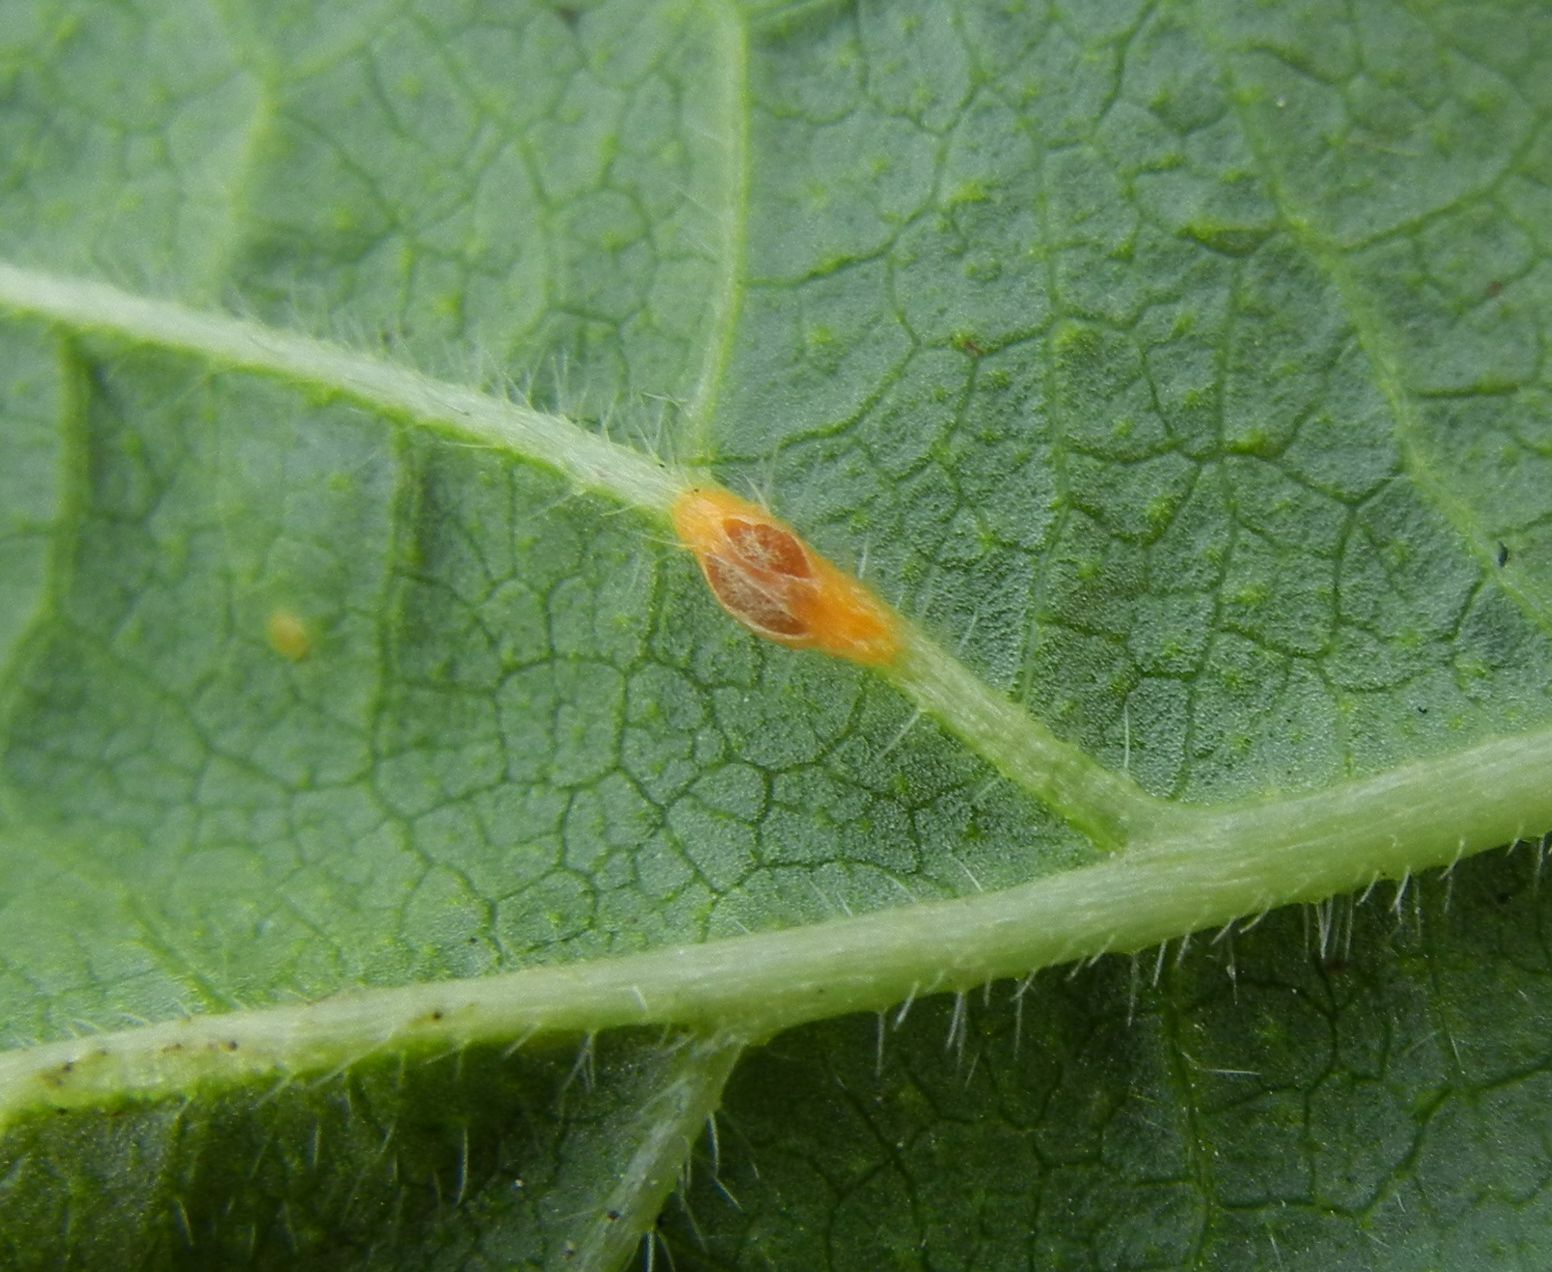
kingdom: Fungi
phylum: Basidiomycota
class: Pucciniomycetes
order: Pucciniales
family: Pucciniaceae
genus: Puccinia
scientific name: Puccinia malvacearum
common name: Hollyhock rust
